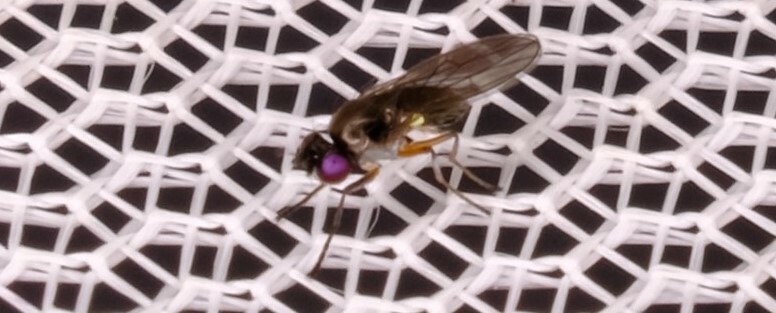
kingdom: Animalia
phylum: Arthropoda
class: Insecta
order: Diptera
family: Ephydridae
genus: Hydrellia
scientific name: Hydrellia tritici
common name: Shore fly
